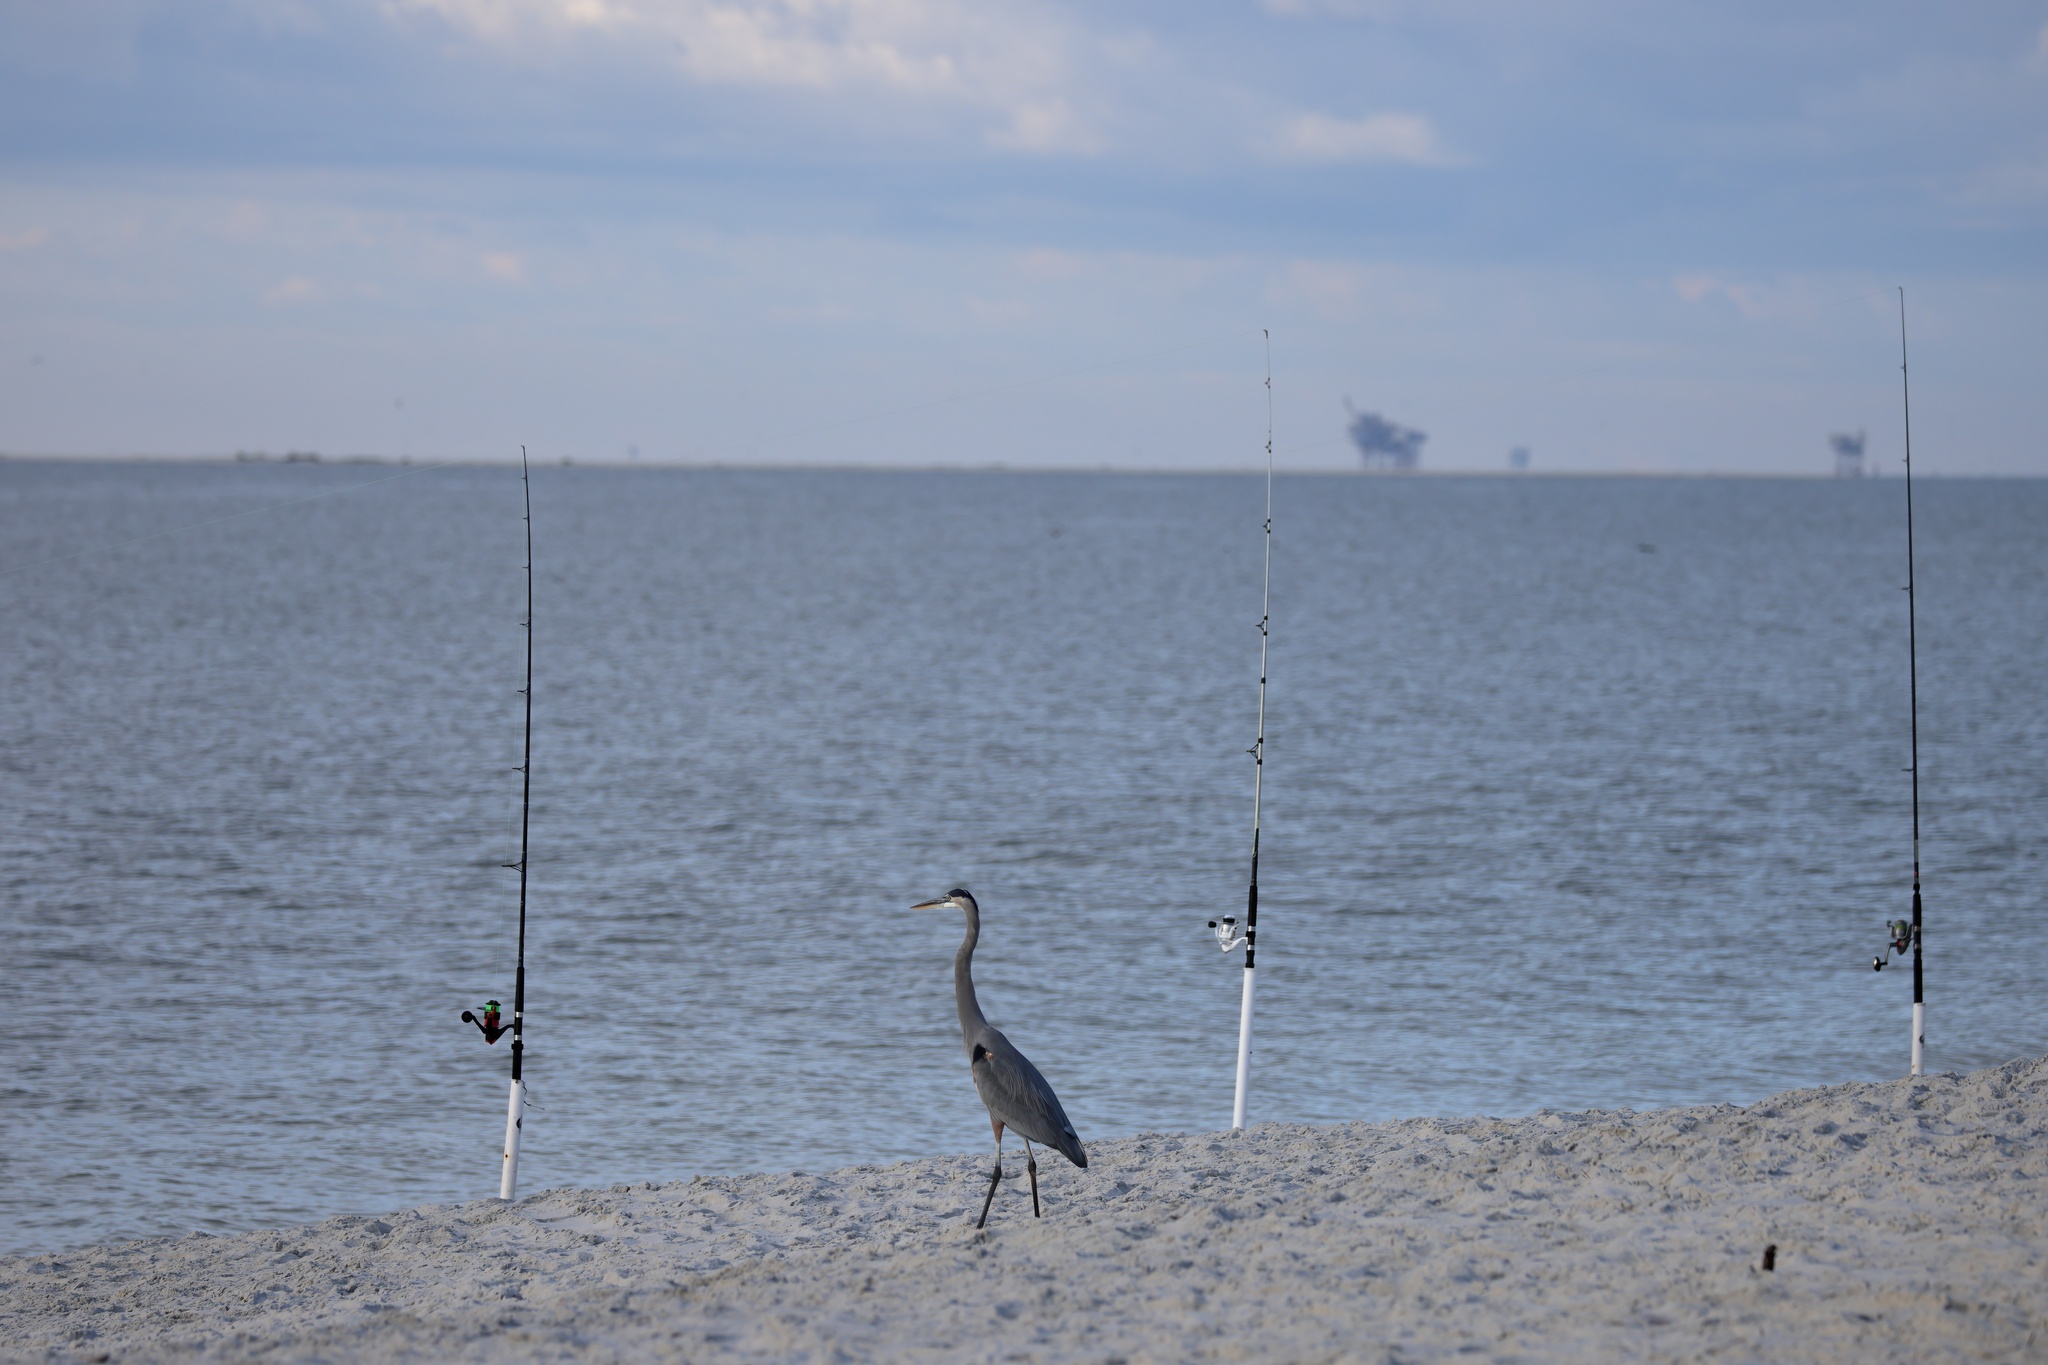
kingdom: Animalia
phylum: Chordata
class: Aves
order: Pelecaniformes
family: Ardeidae
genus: Ardea
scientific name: Ardea herodias
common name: Great blue heron
